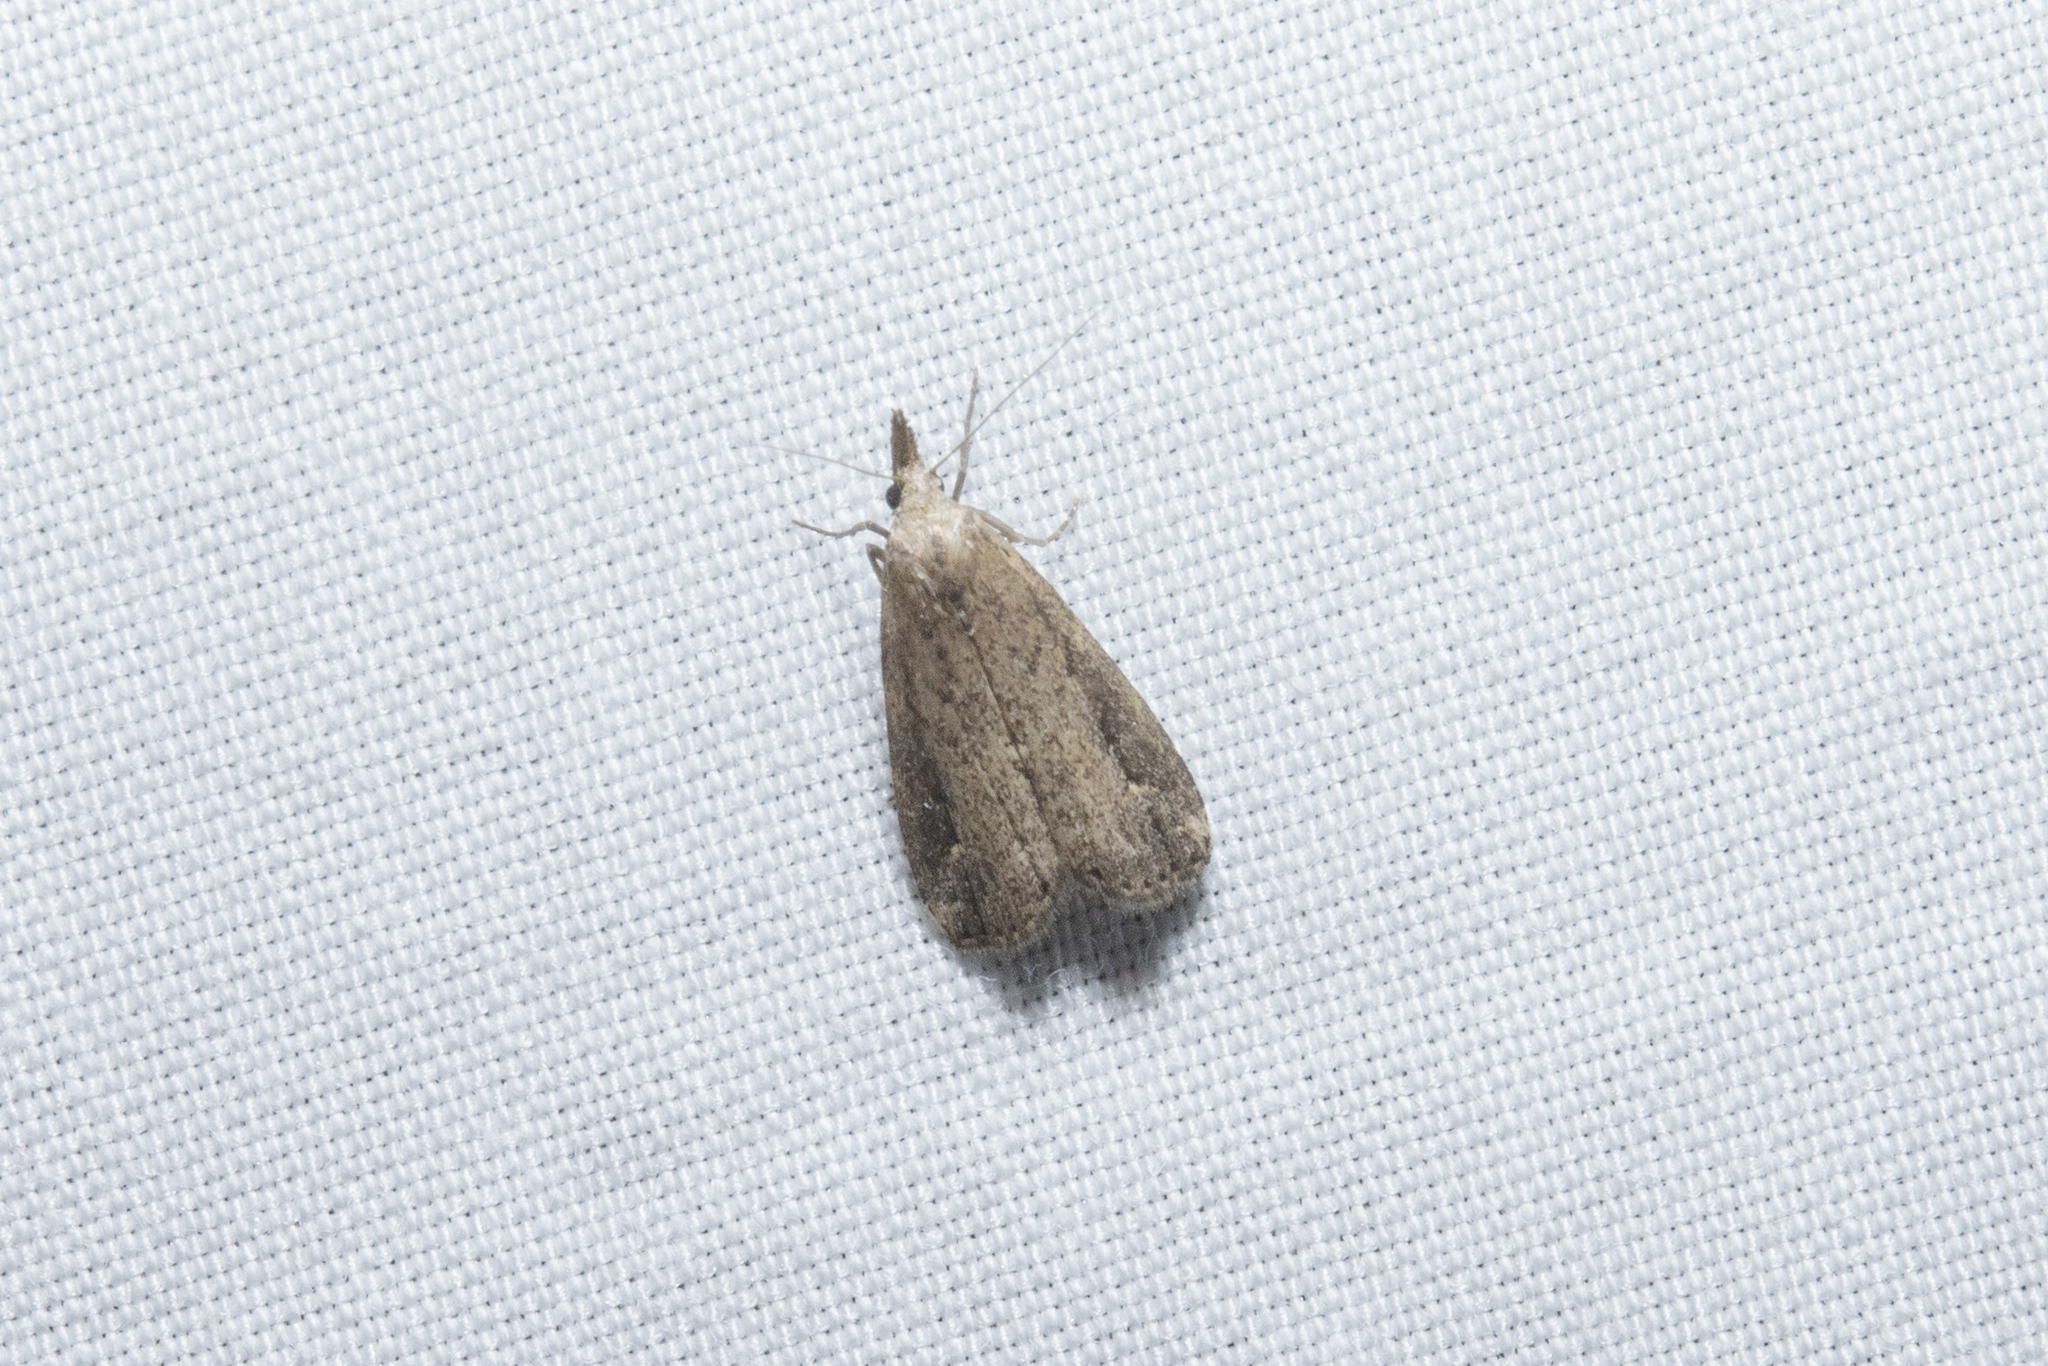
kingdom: Animalia
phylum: Arthropoda
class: Insecta
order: Lepidoptera
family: Erebidae
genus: Schrankia
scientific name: Schrankia costaestrigalis
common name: Pinion-streaked snout
